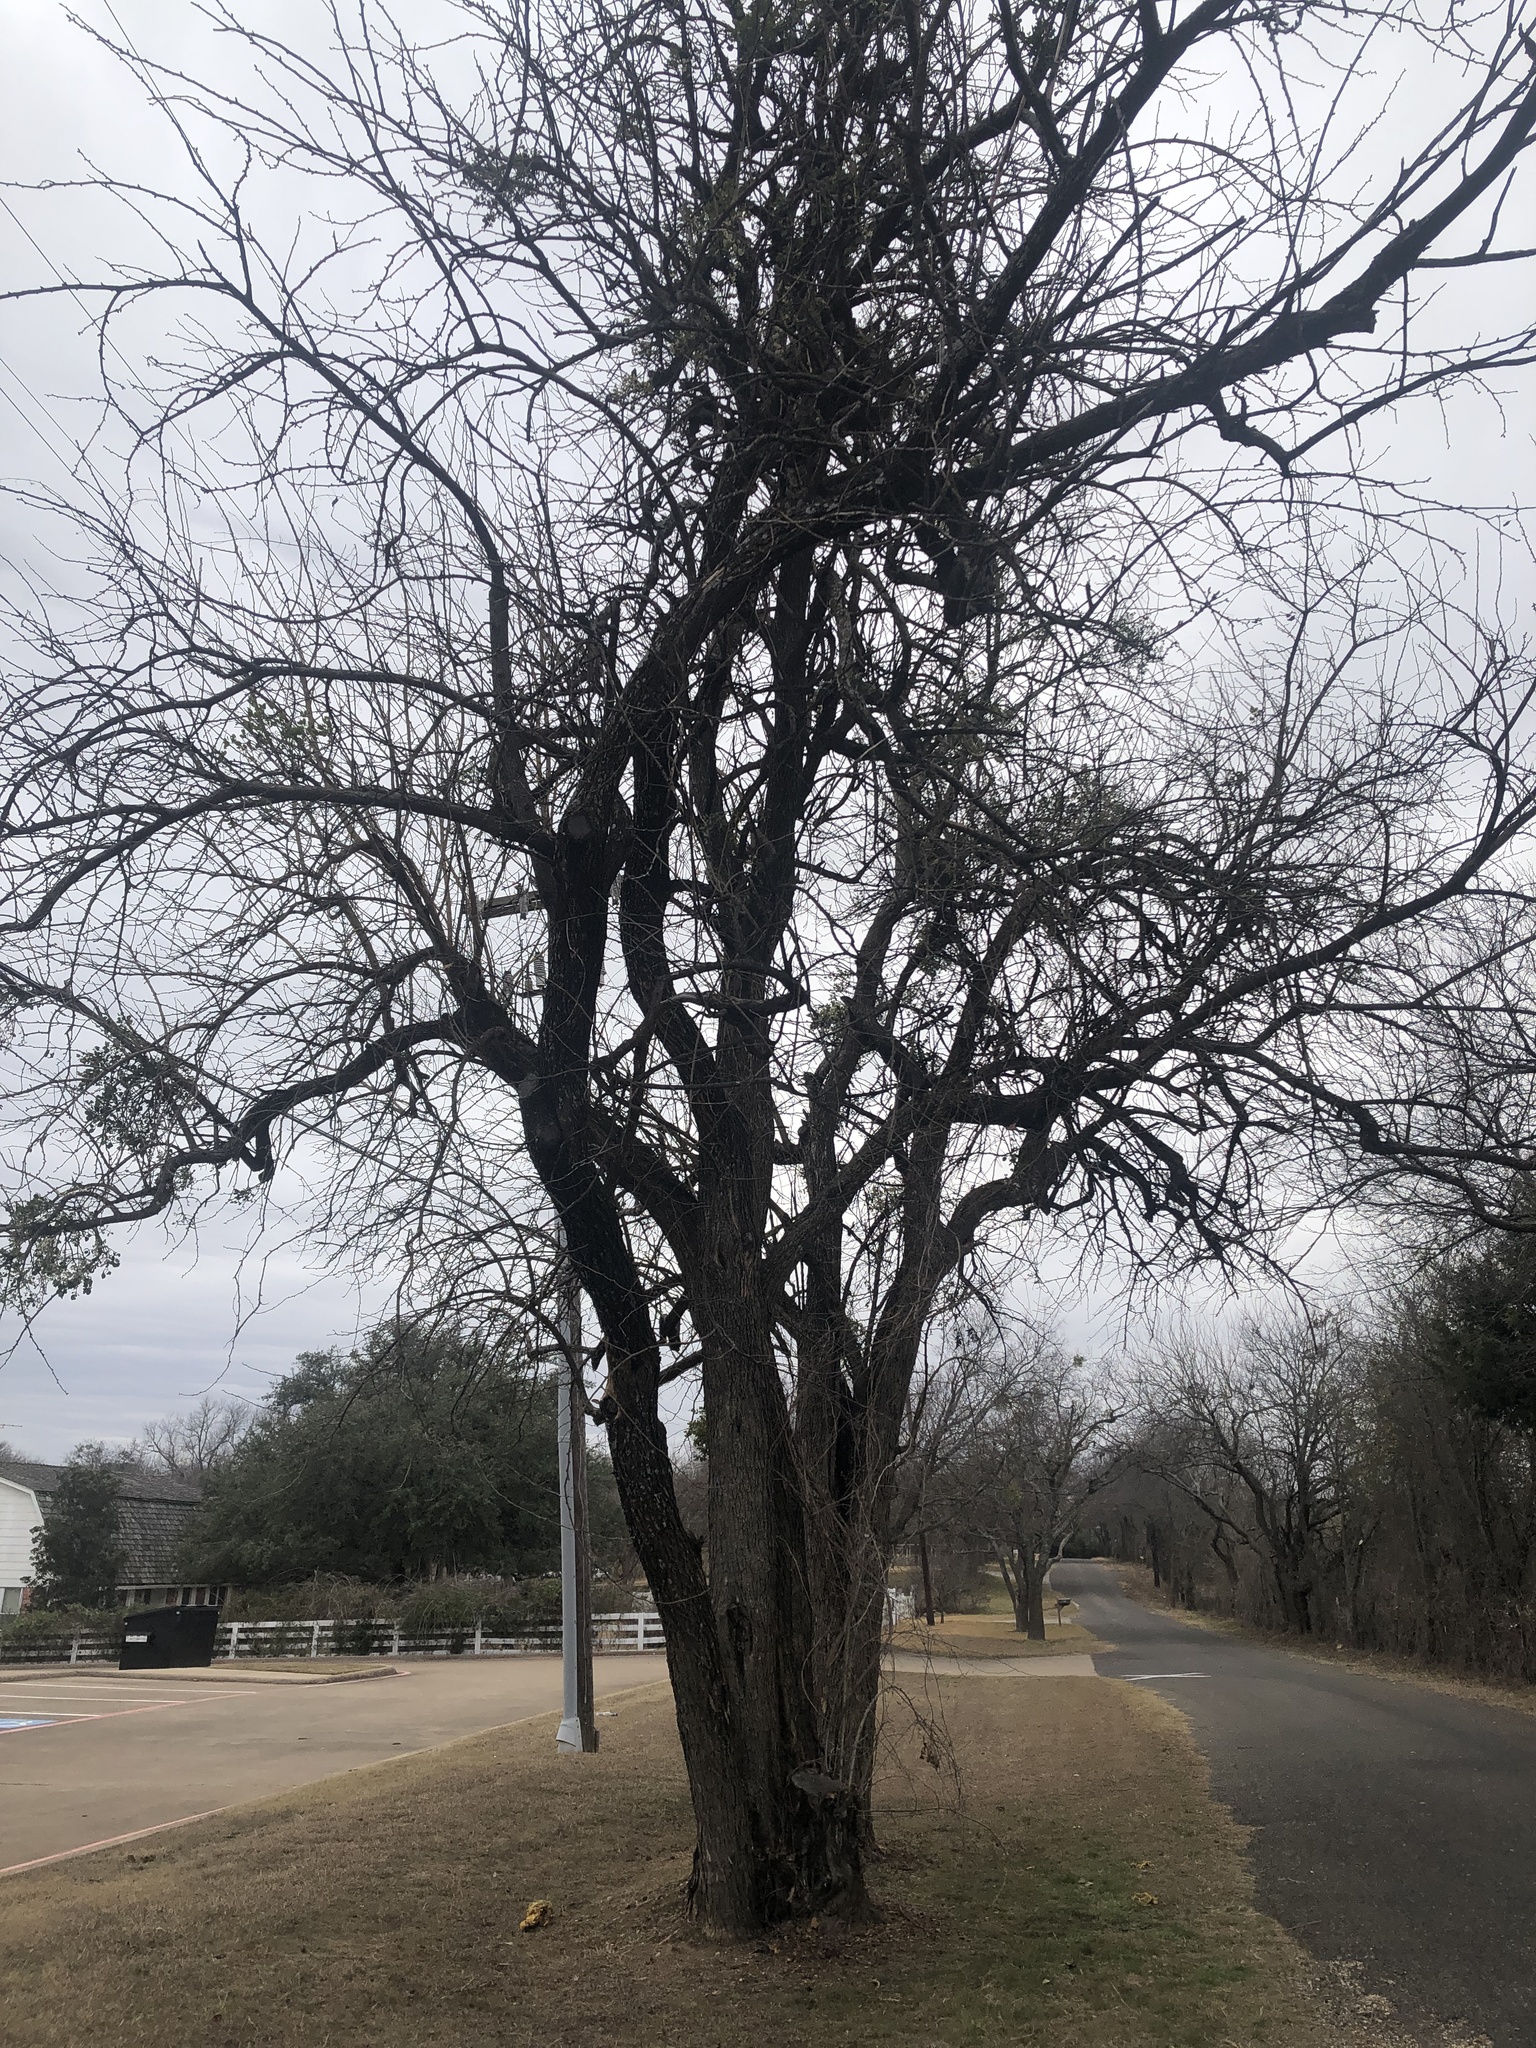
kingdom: Plantae
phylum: Tracheophyta
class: Magnoliopsida
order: Rosales
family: Moraceae
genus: Maclura
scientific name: Maclura pomifera
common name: Osage-orange
